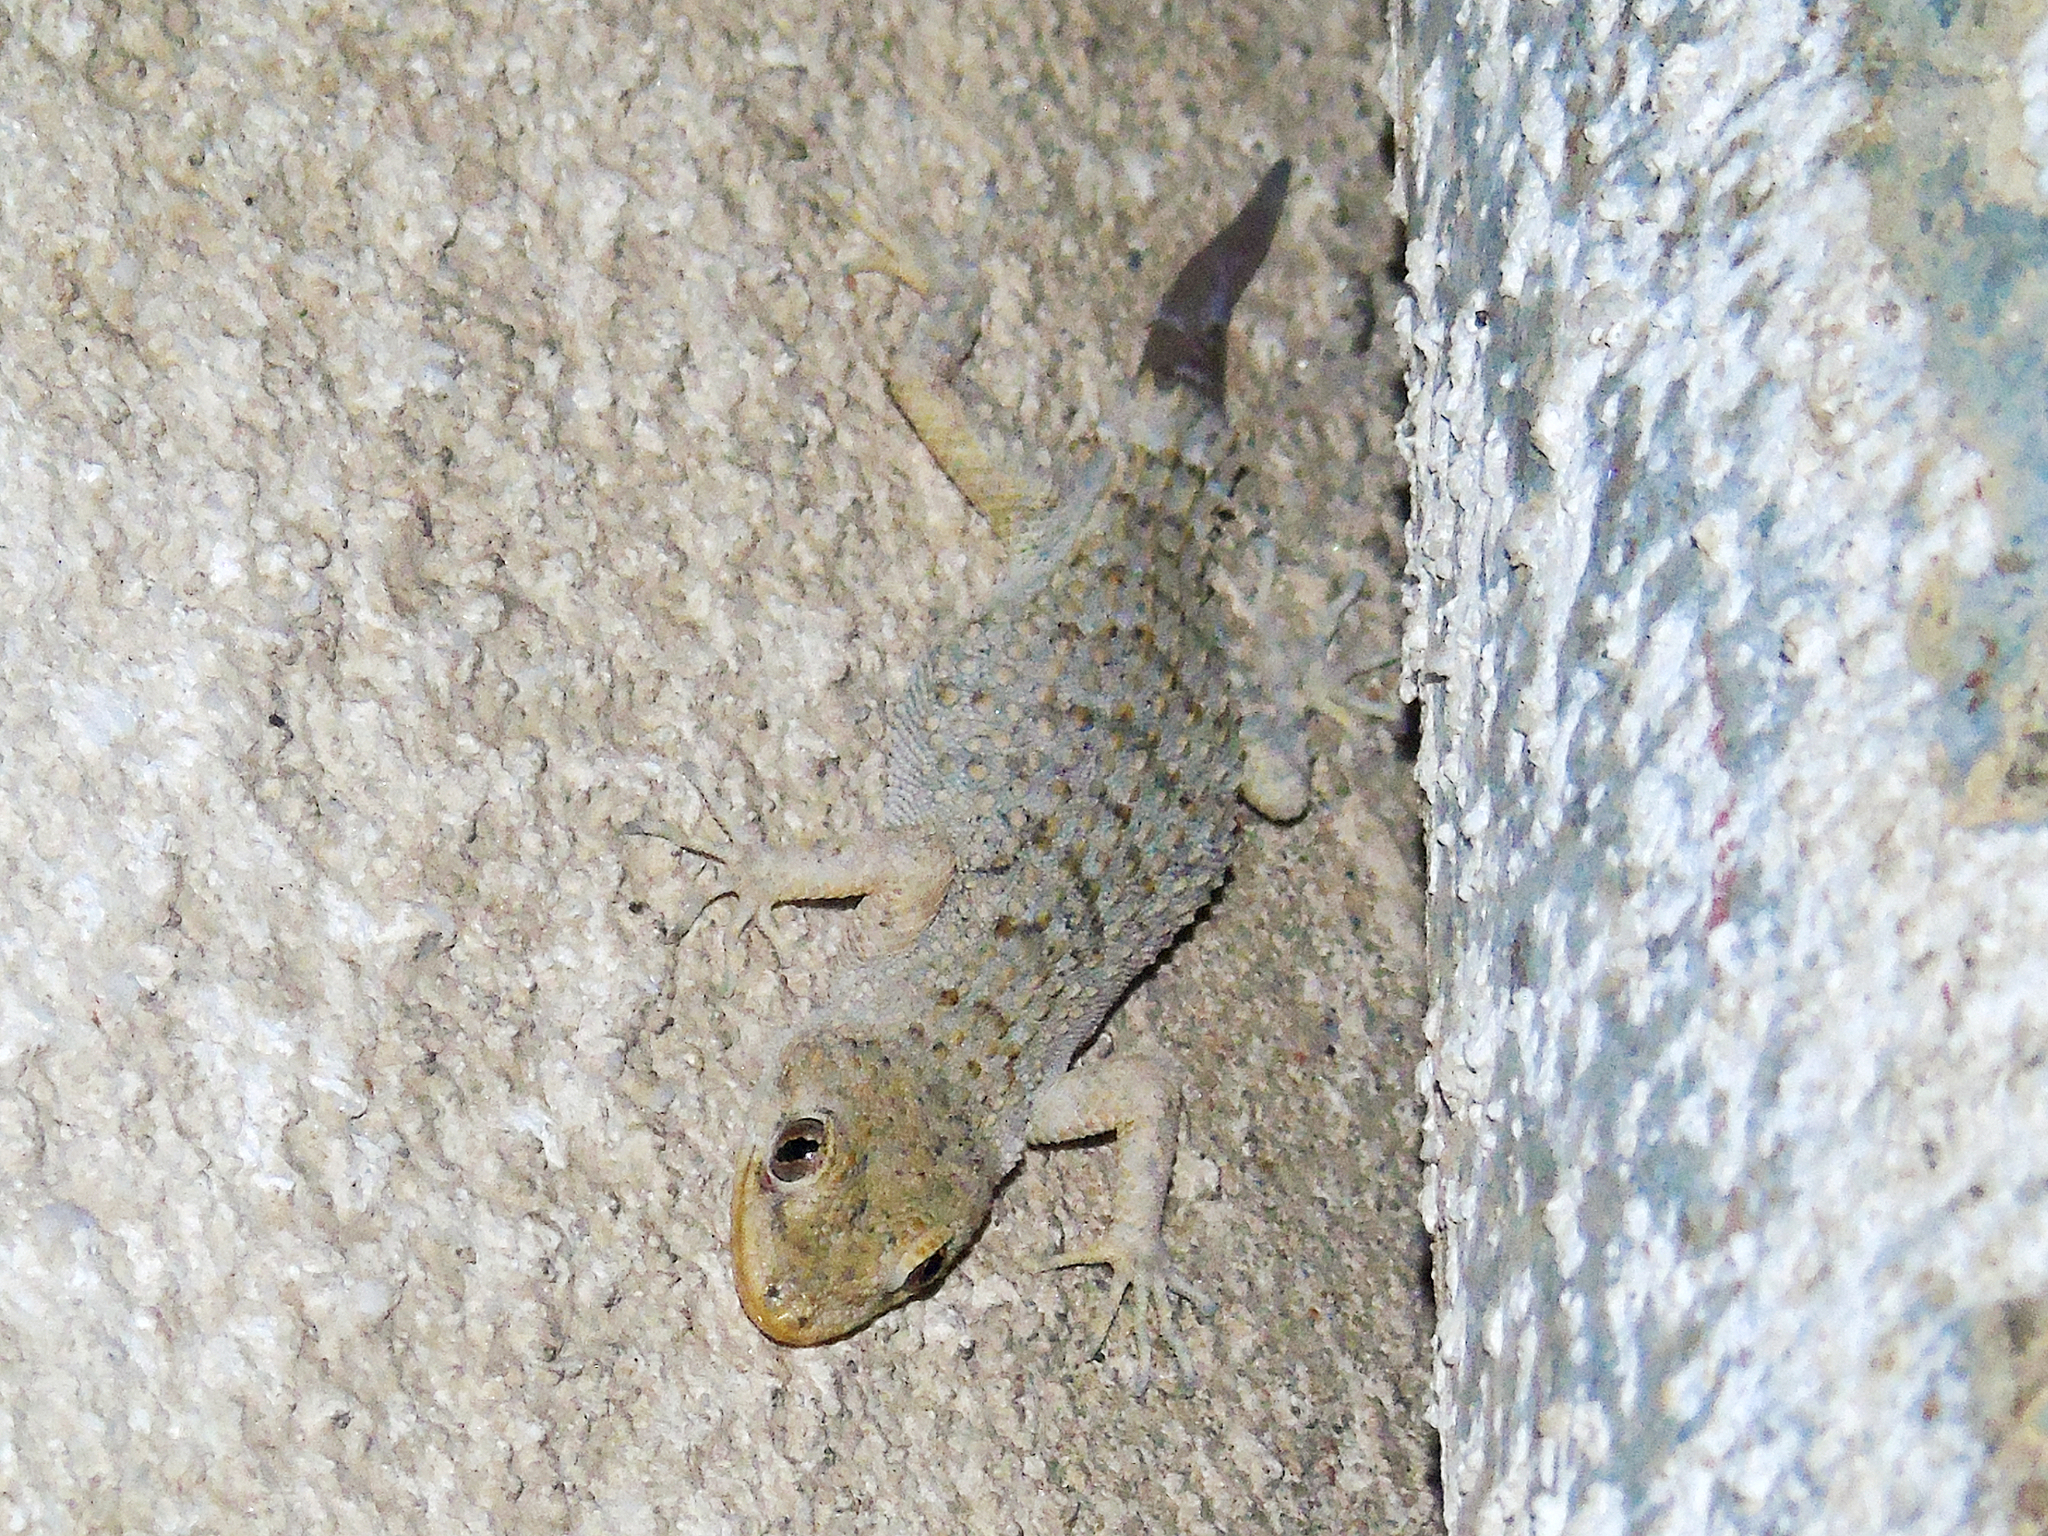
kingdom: Animalia
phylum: Chordata
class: Squamata
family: Gekkonidae
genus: Mediodactylus
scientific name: Mediodactylus kotschyi
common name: Kotschy's gecko
